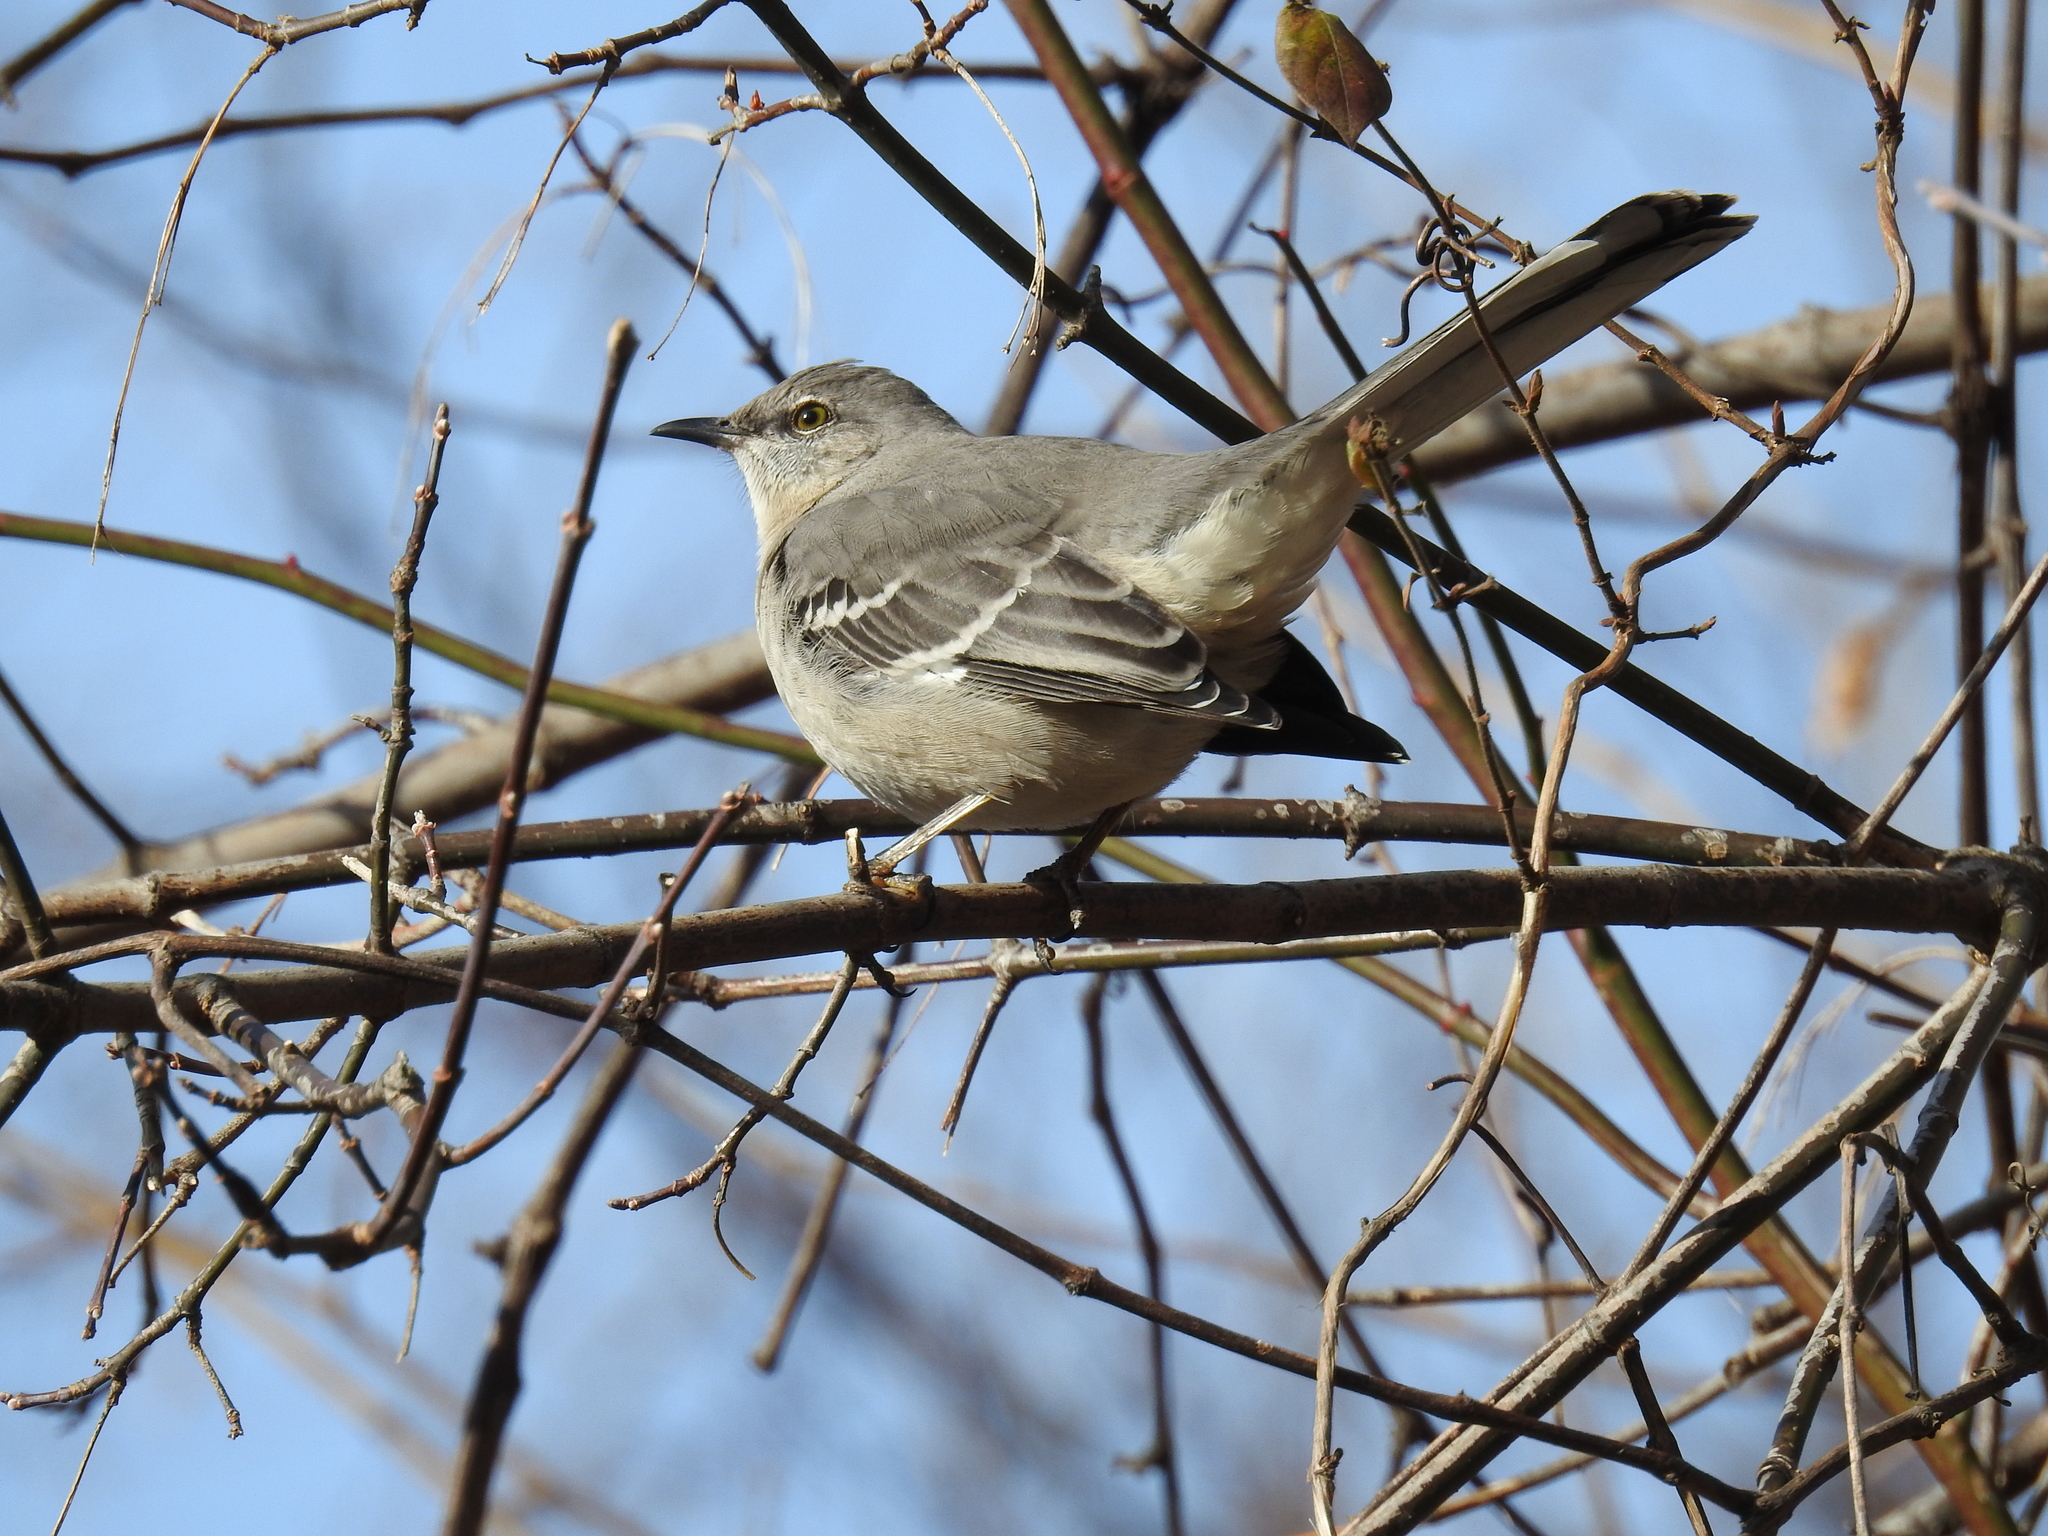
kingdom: Animalia
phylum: Chordata
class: Aves
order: Passeriformes
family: Mimidae
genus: Mimus
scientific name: Mimus polyglottos
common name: Northern mockingbird
